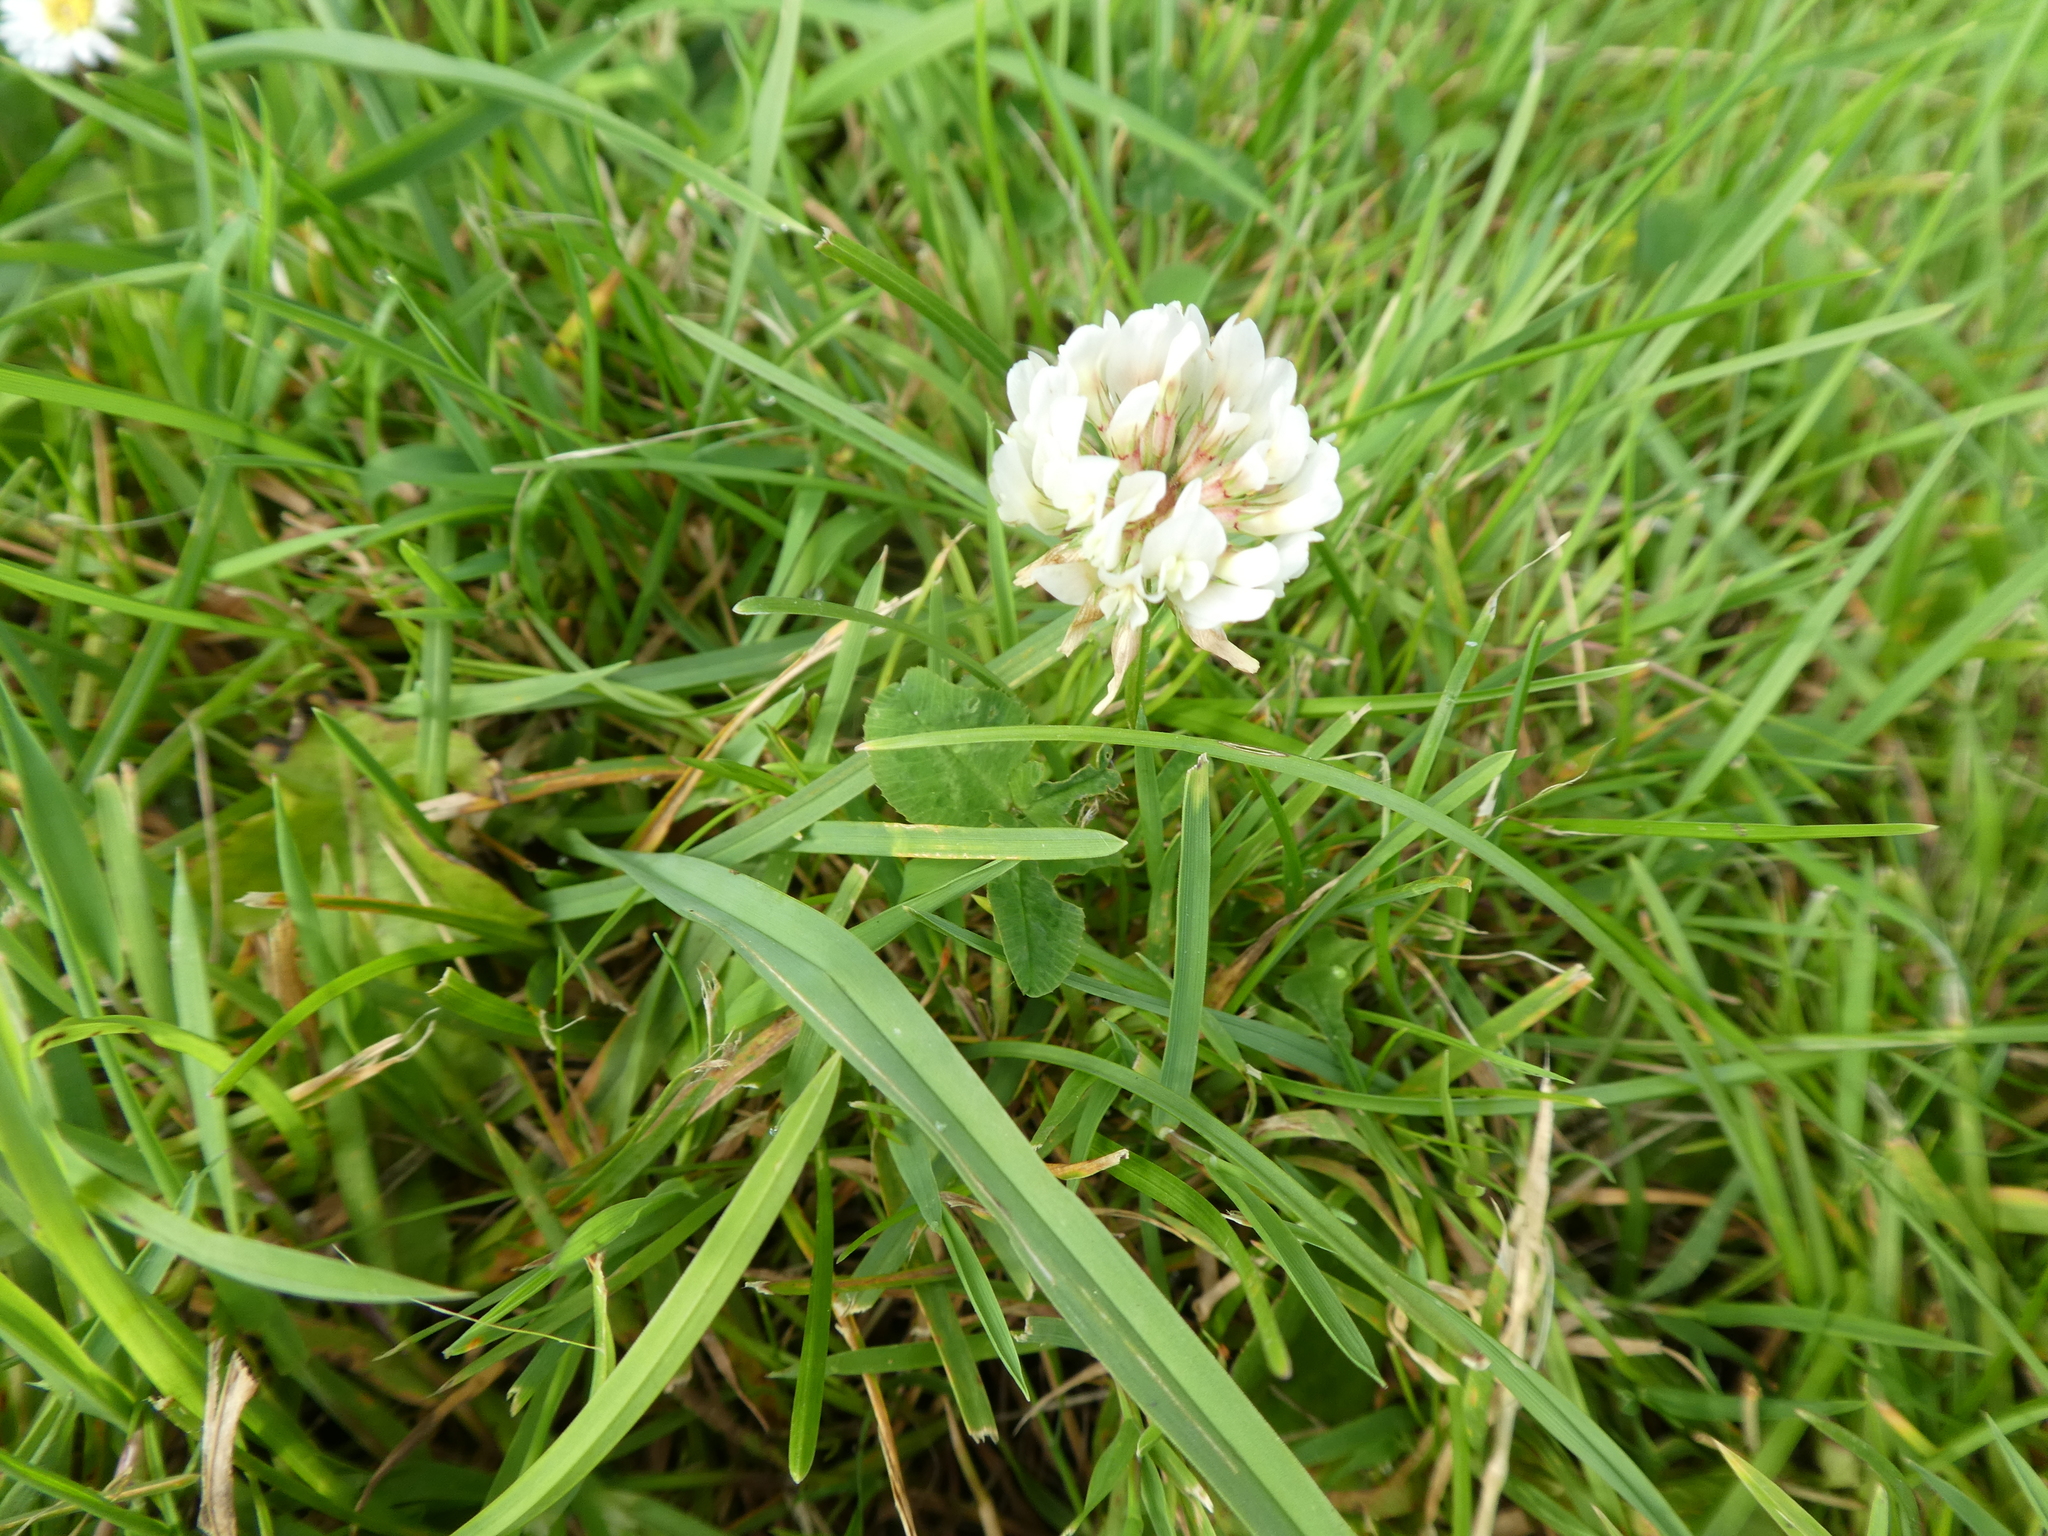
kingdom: Plantae
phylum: Tracheophyta
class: Magnoliopsida
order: Fabales
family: Fabaceae
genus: Trifolium
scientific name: Trifolium repens
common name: White clover
